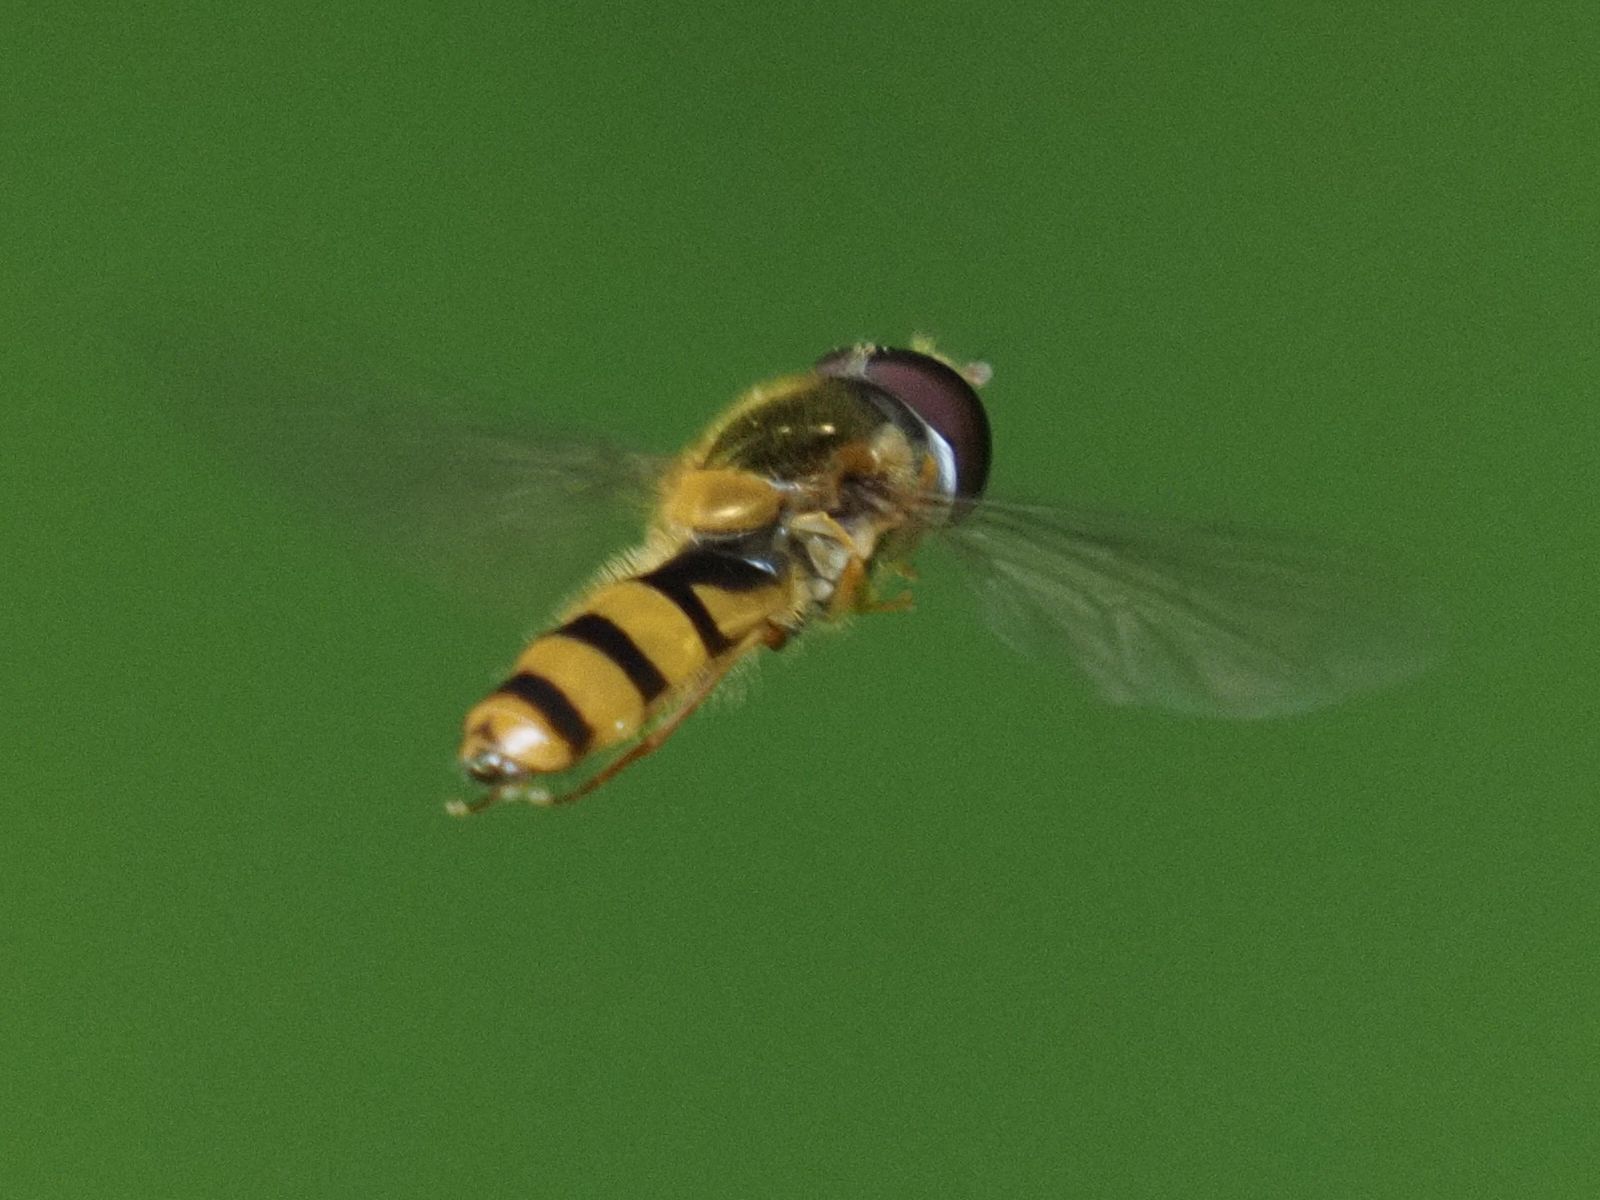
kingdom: Animalia
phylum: Arthropoda
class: Insecta
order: Diptera
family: Syrphidae
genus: Fagisyrphus
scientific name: Fagisyrphus cincta
